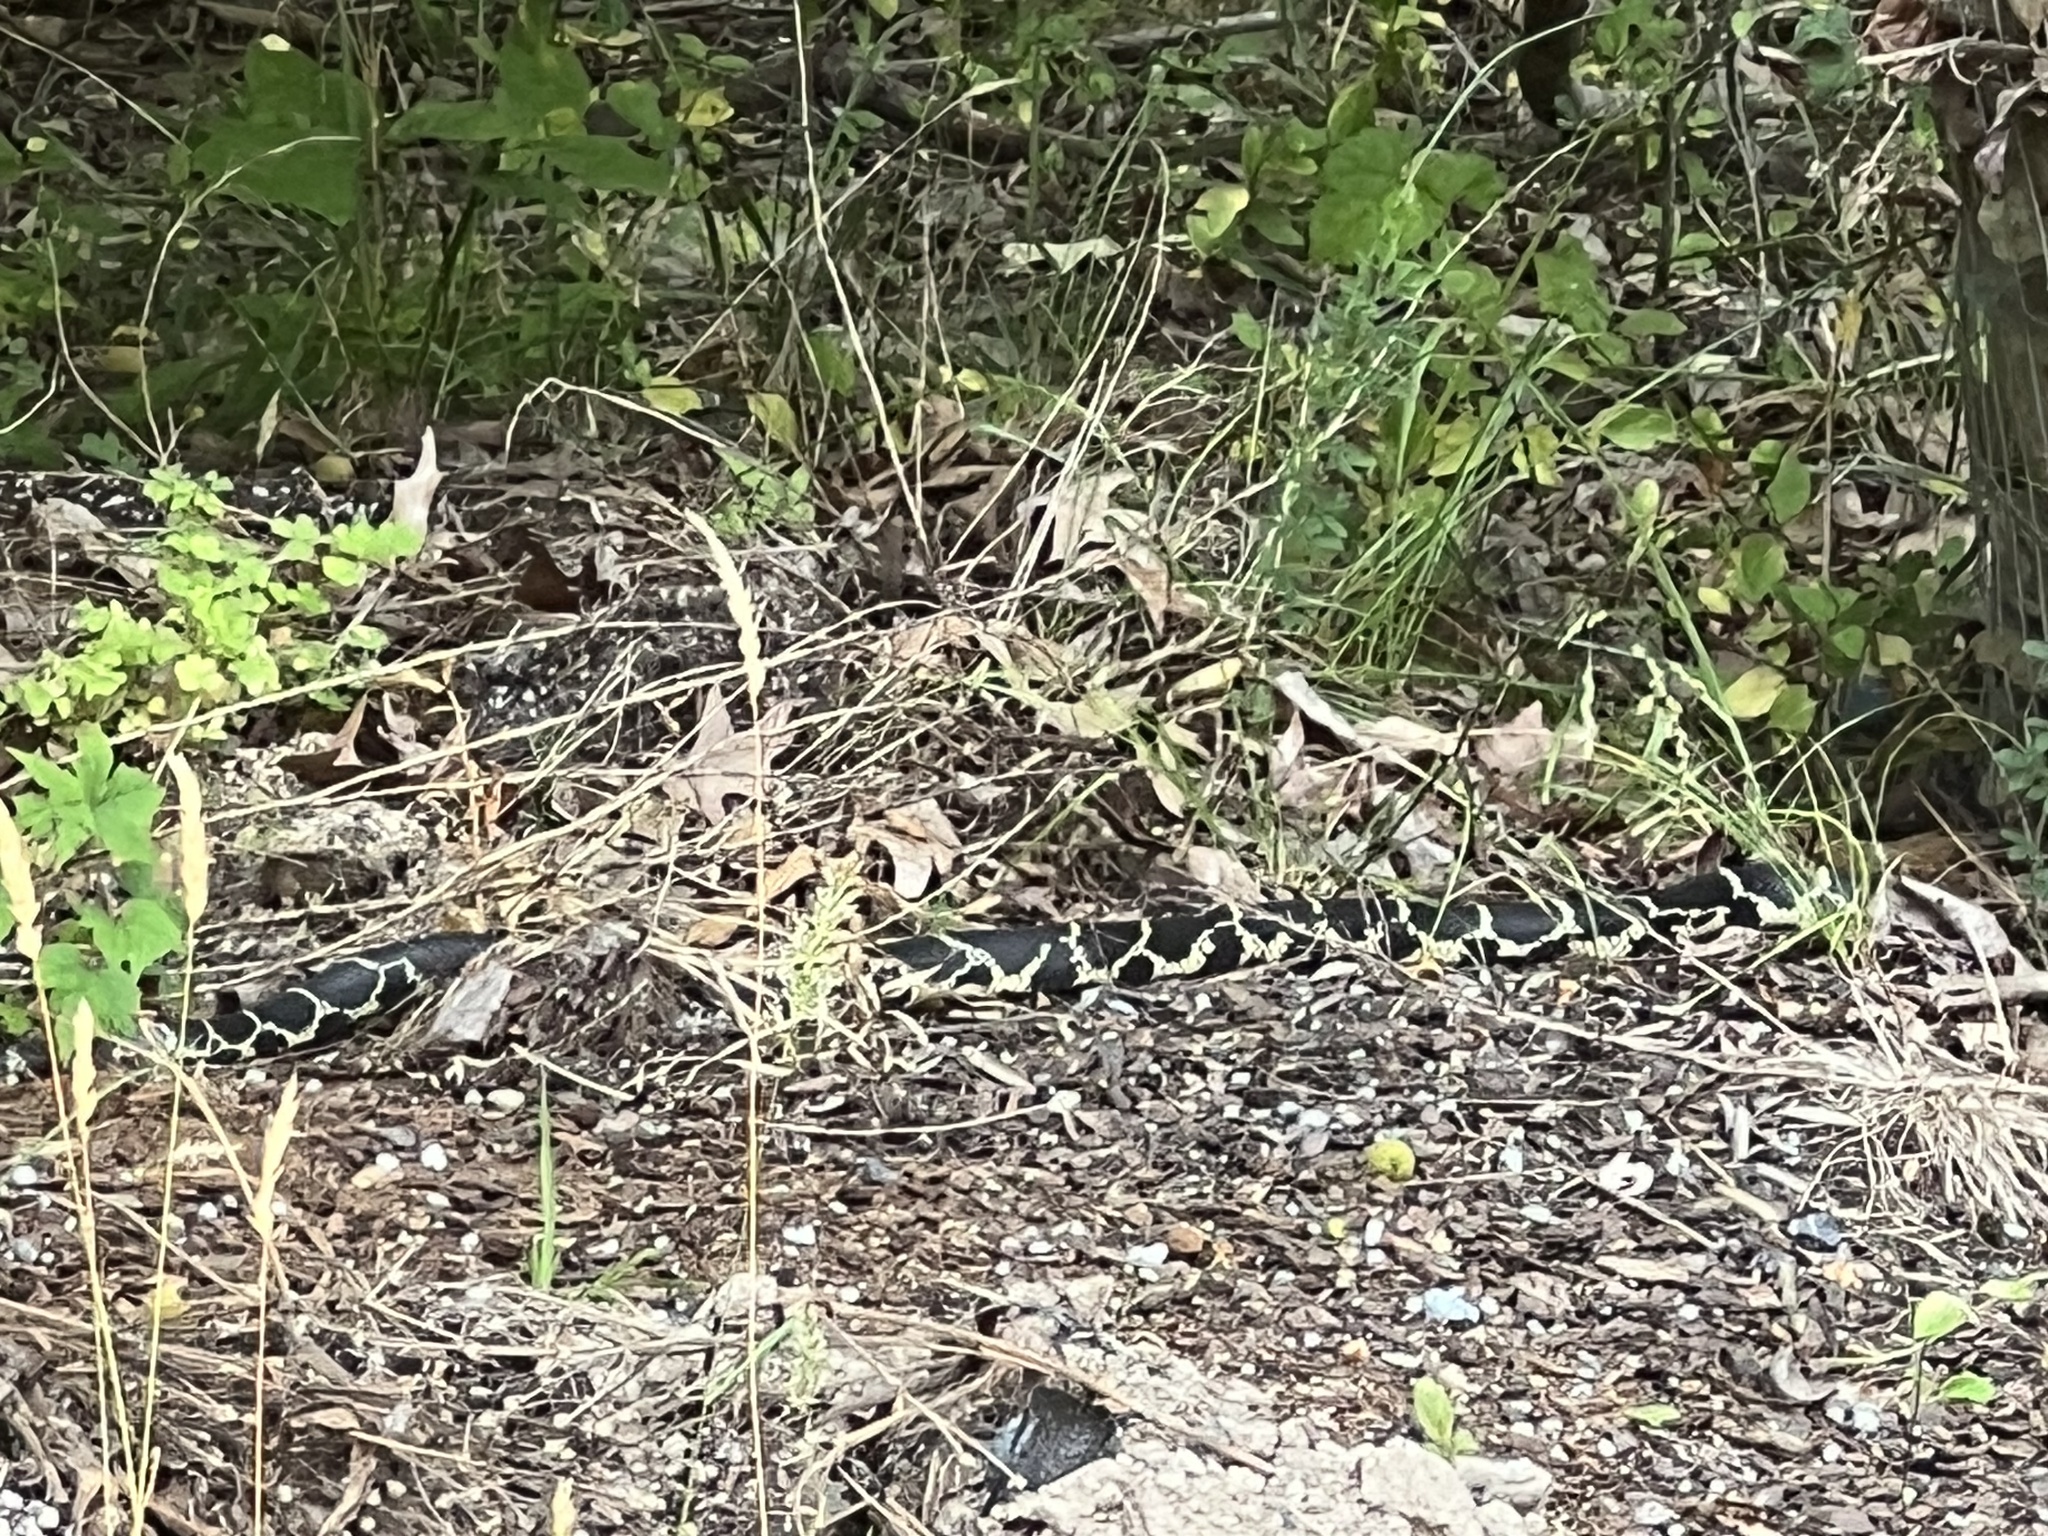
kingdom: Animalia
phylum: Chordata
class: Squamata
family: Colubridae
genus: Lampropeltis
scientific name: Lampropeltis getula
